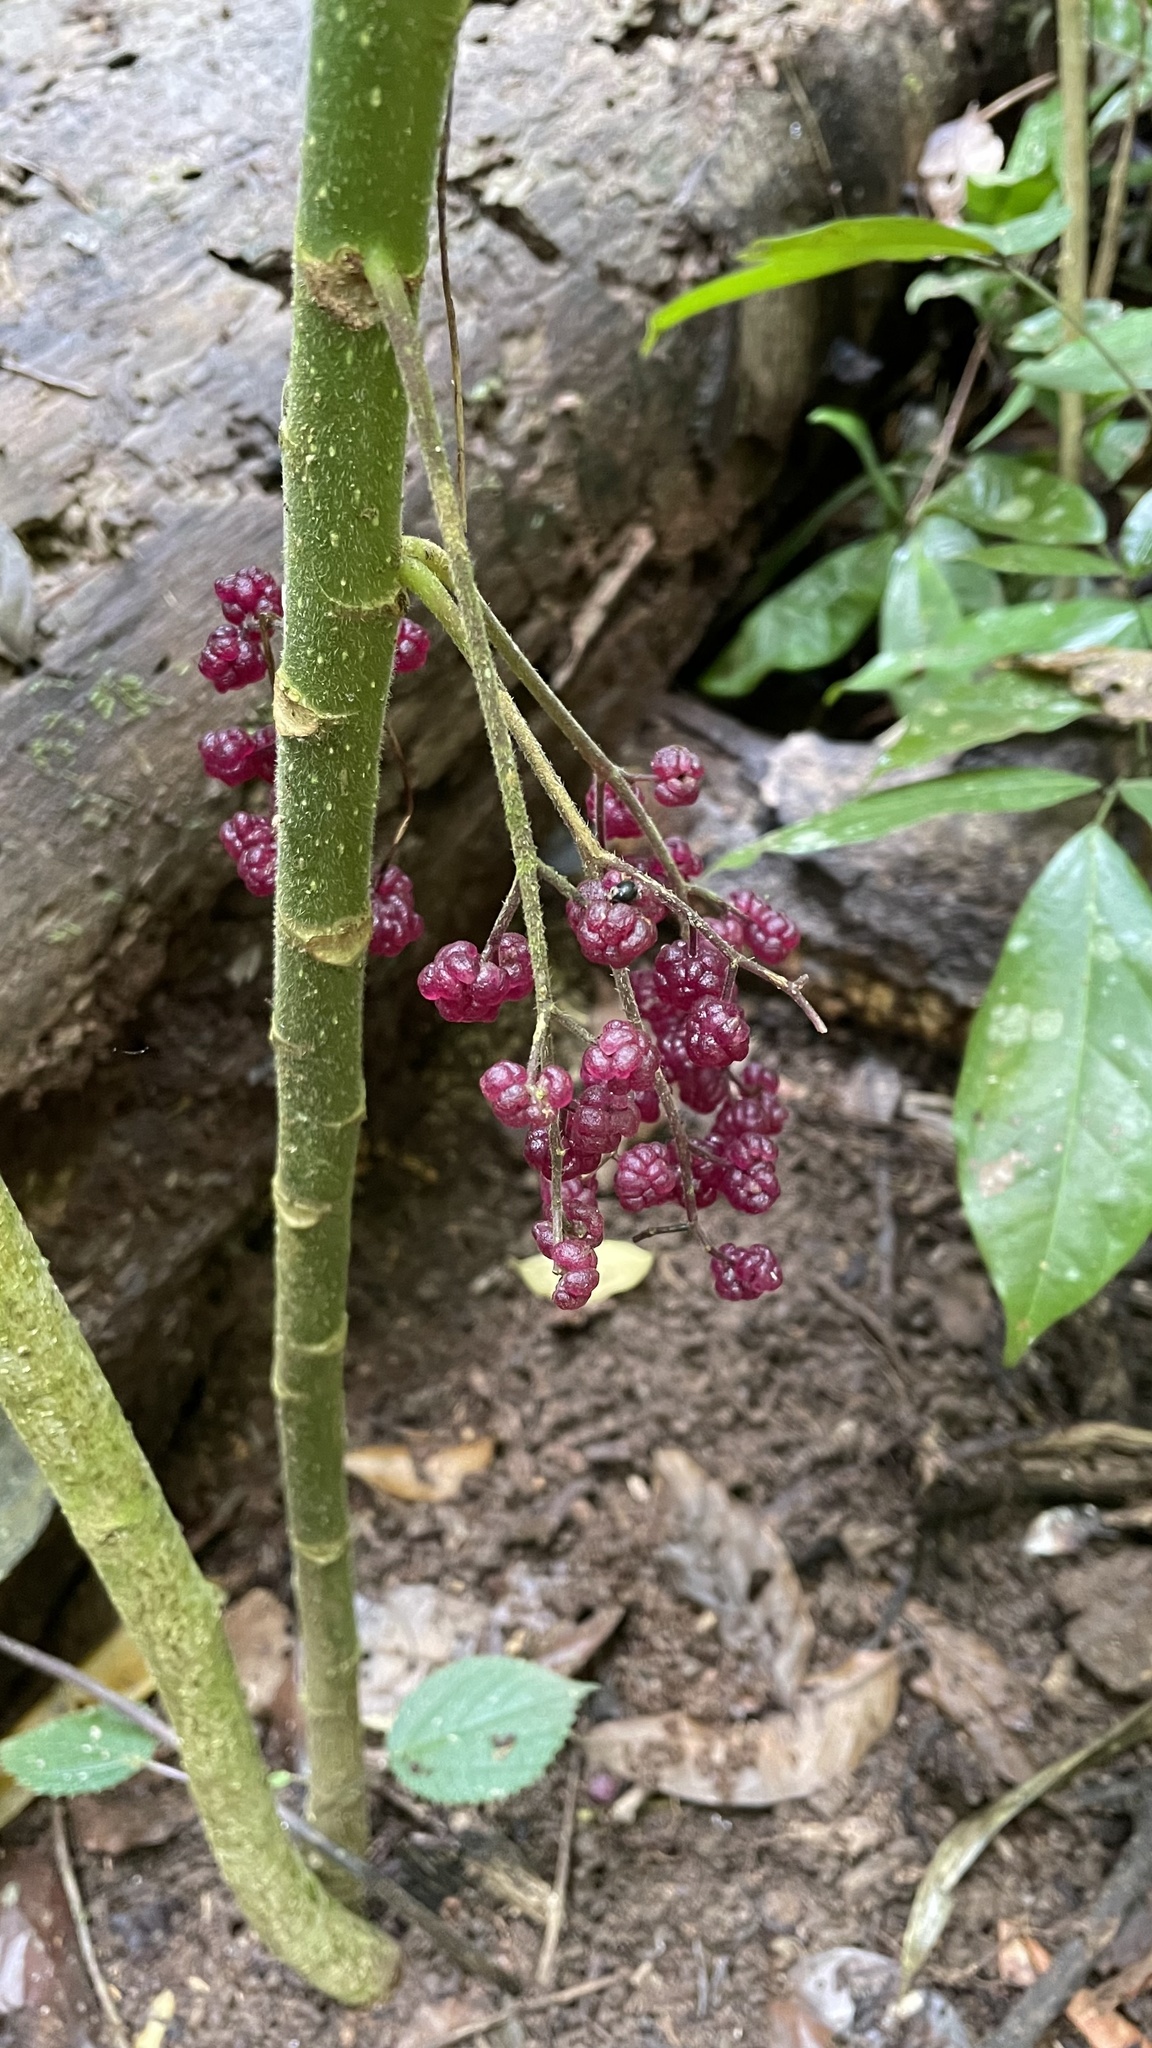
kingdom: Plantae
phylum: Tracheophyta
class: Magnoliopsida
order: Rosales
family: Urticaceae
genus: Dendrocnide
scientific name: Dendrocnide moroides
